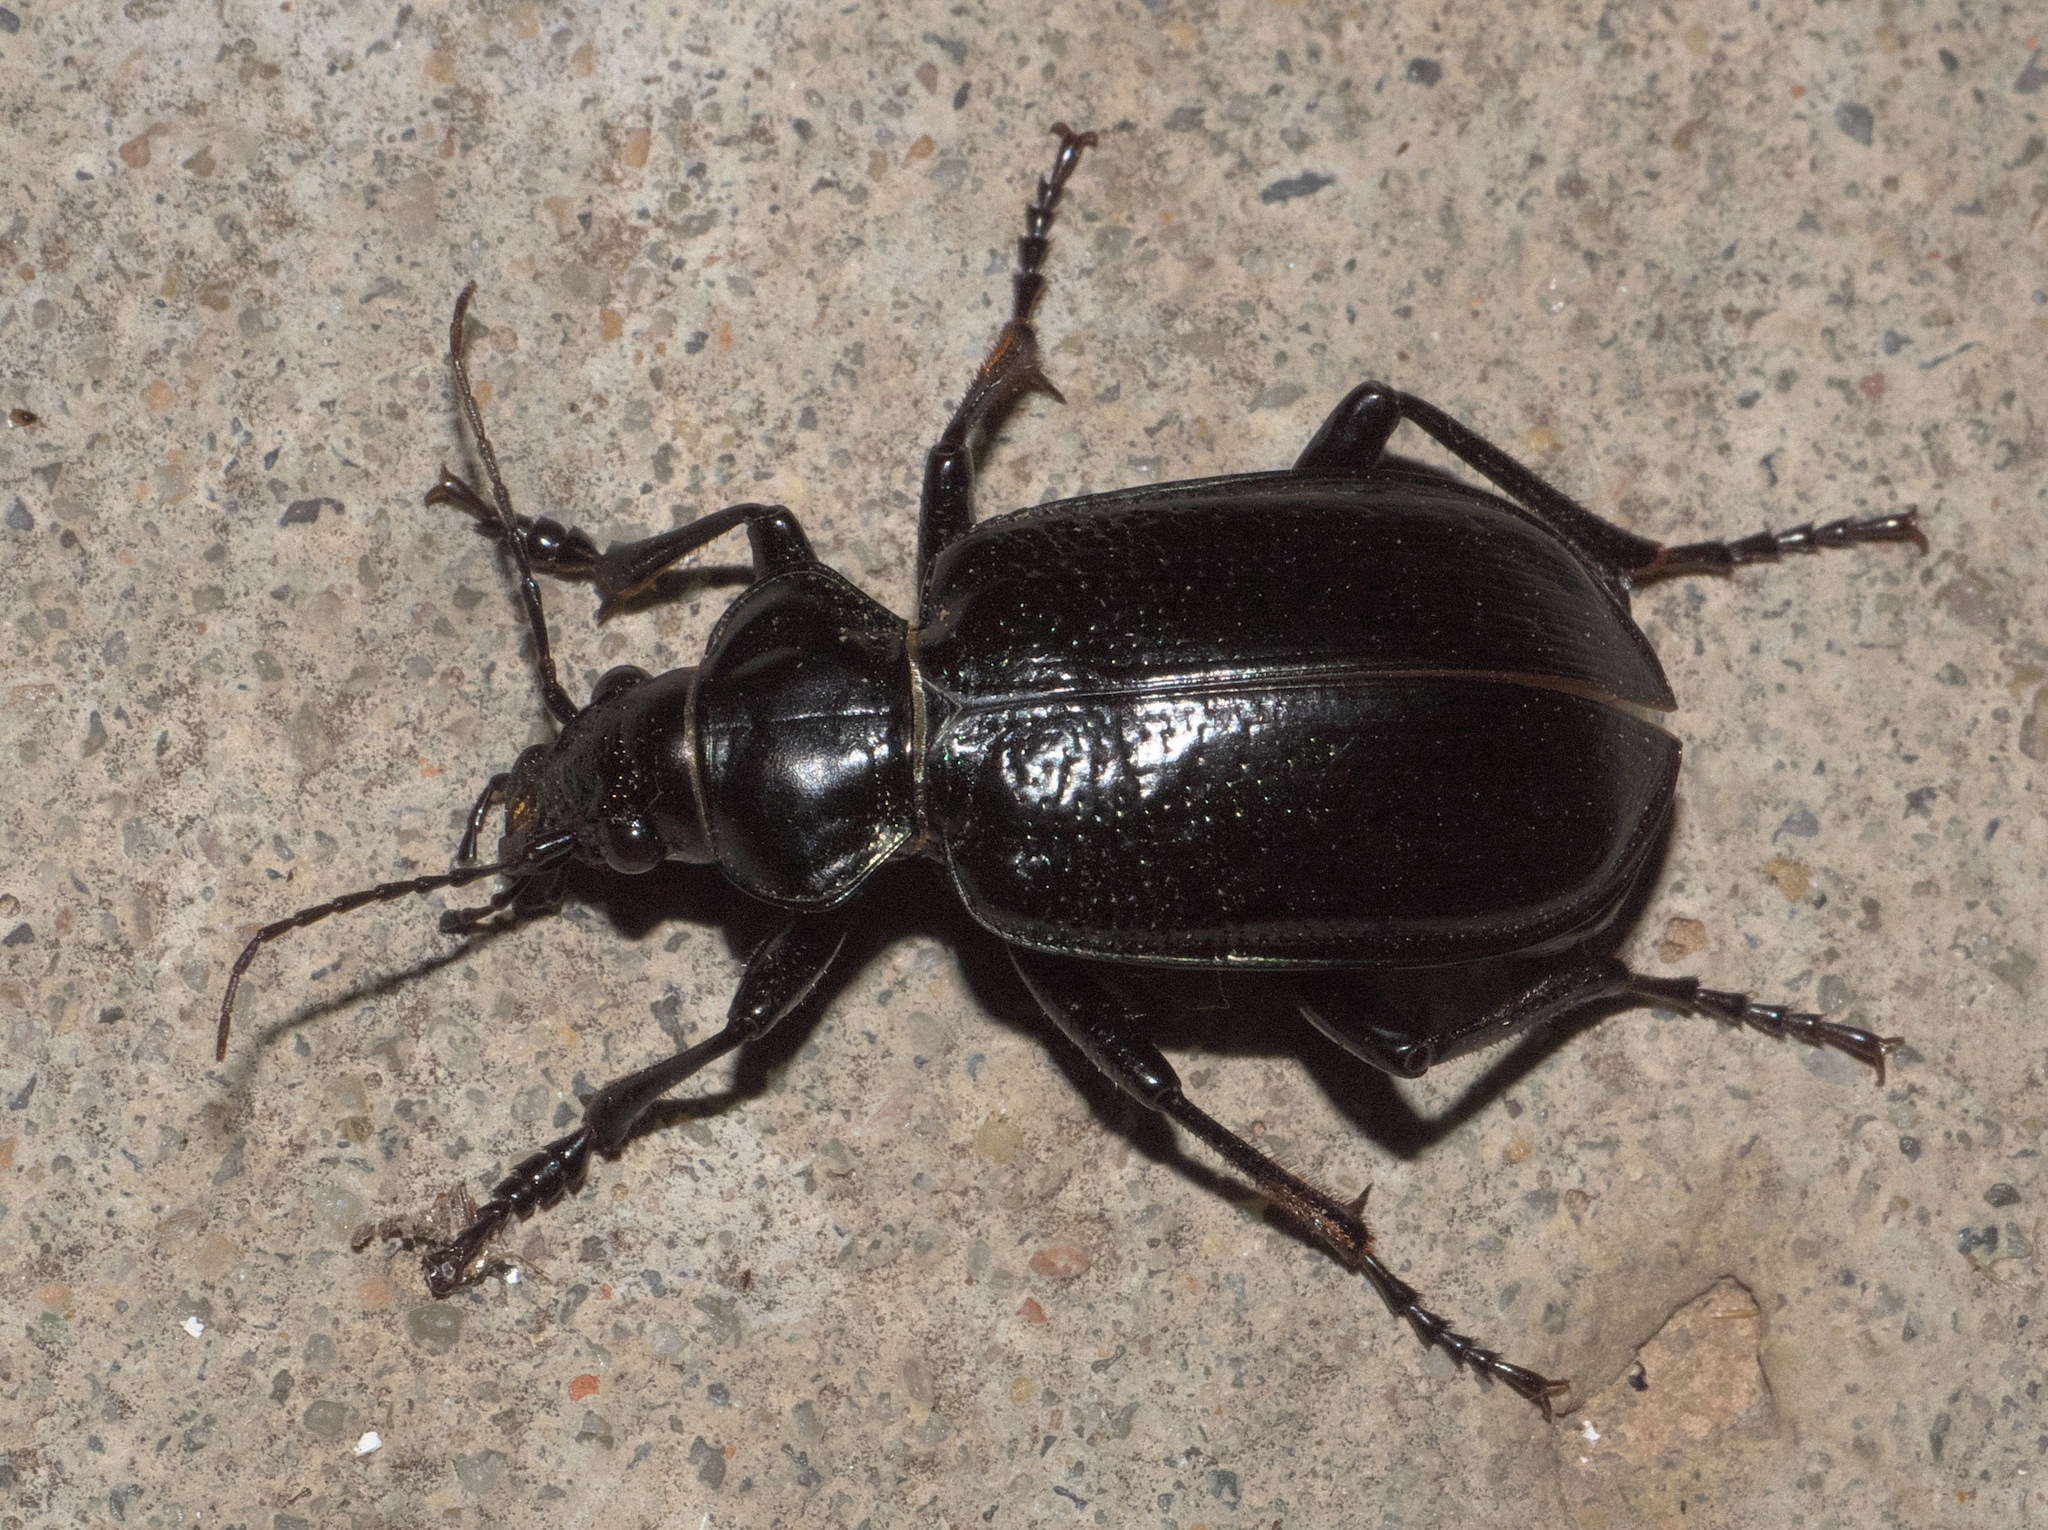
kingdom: Animalia
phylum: Arthropoda
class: Insecta
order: Coleoptera
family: Carabidae
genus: Calosoma
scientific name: Calosoma marginale
